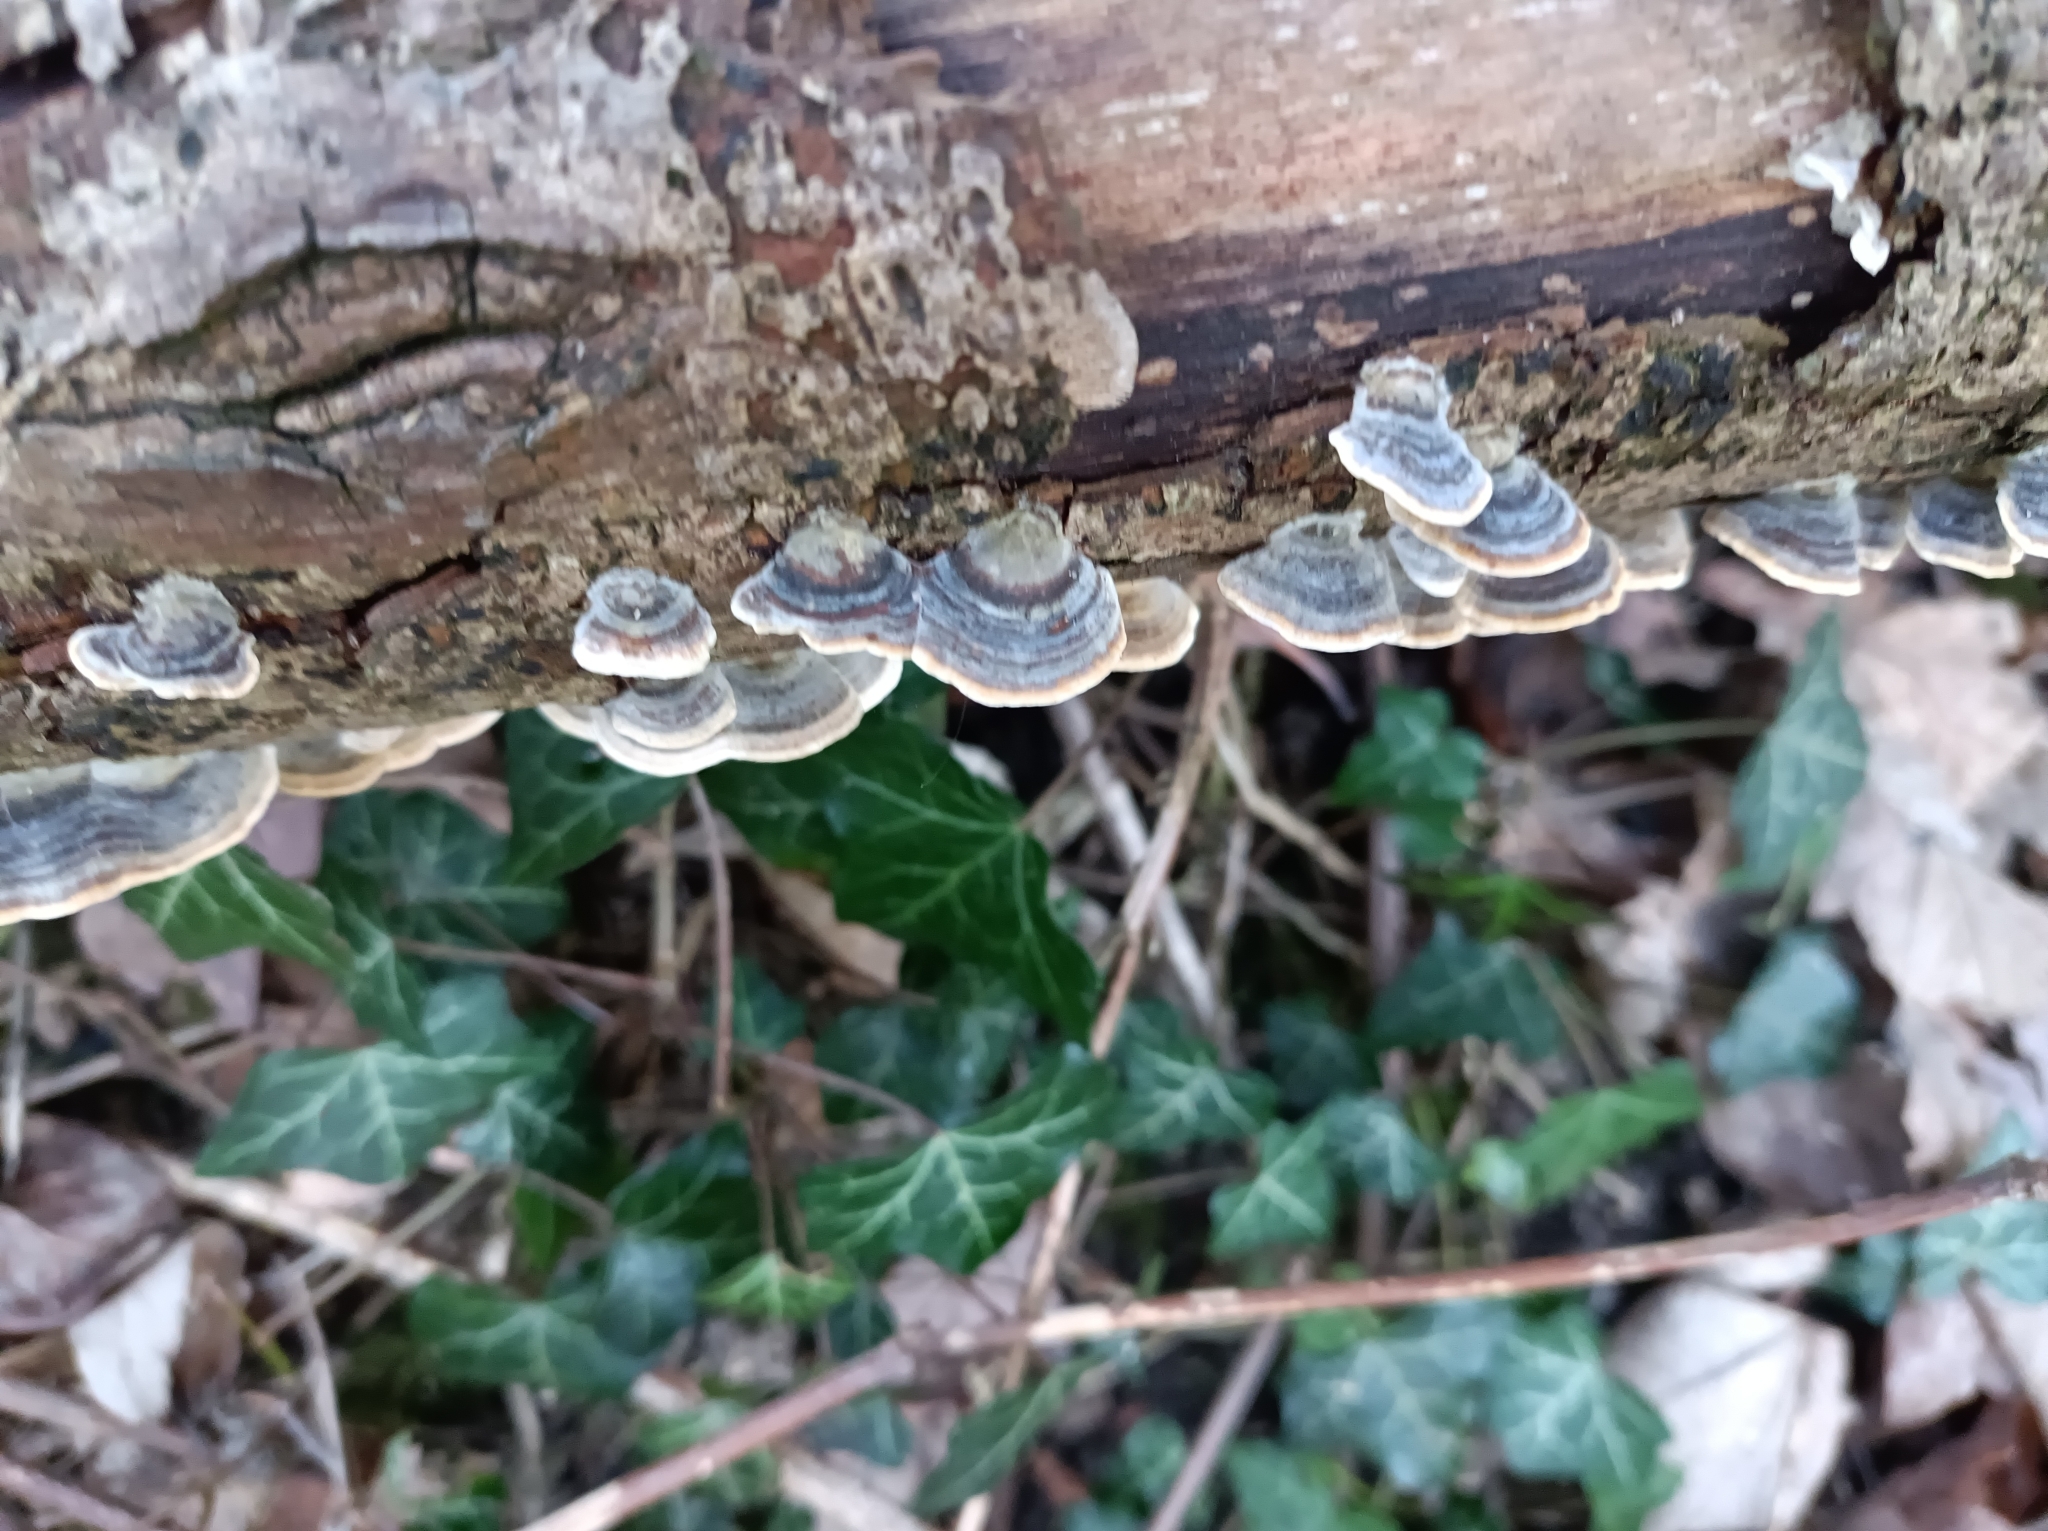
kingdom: Fungi
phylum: Basidiomycota
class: Agaricomycetes
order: Polyporales
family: Polyporaceae
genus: Trametes
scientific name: Trametes versicolor
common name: Turkeytail
